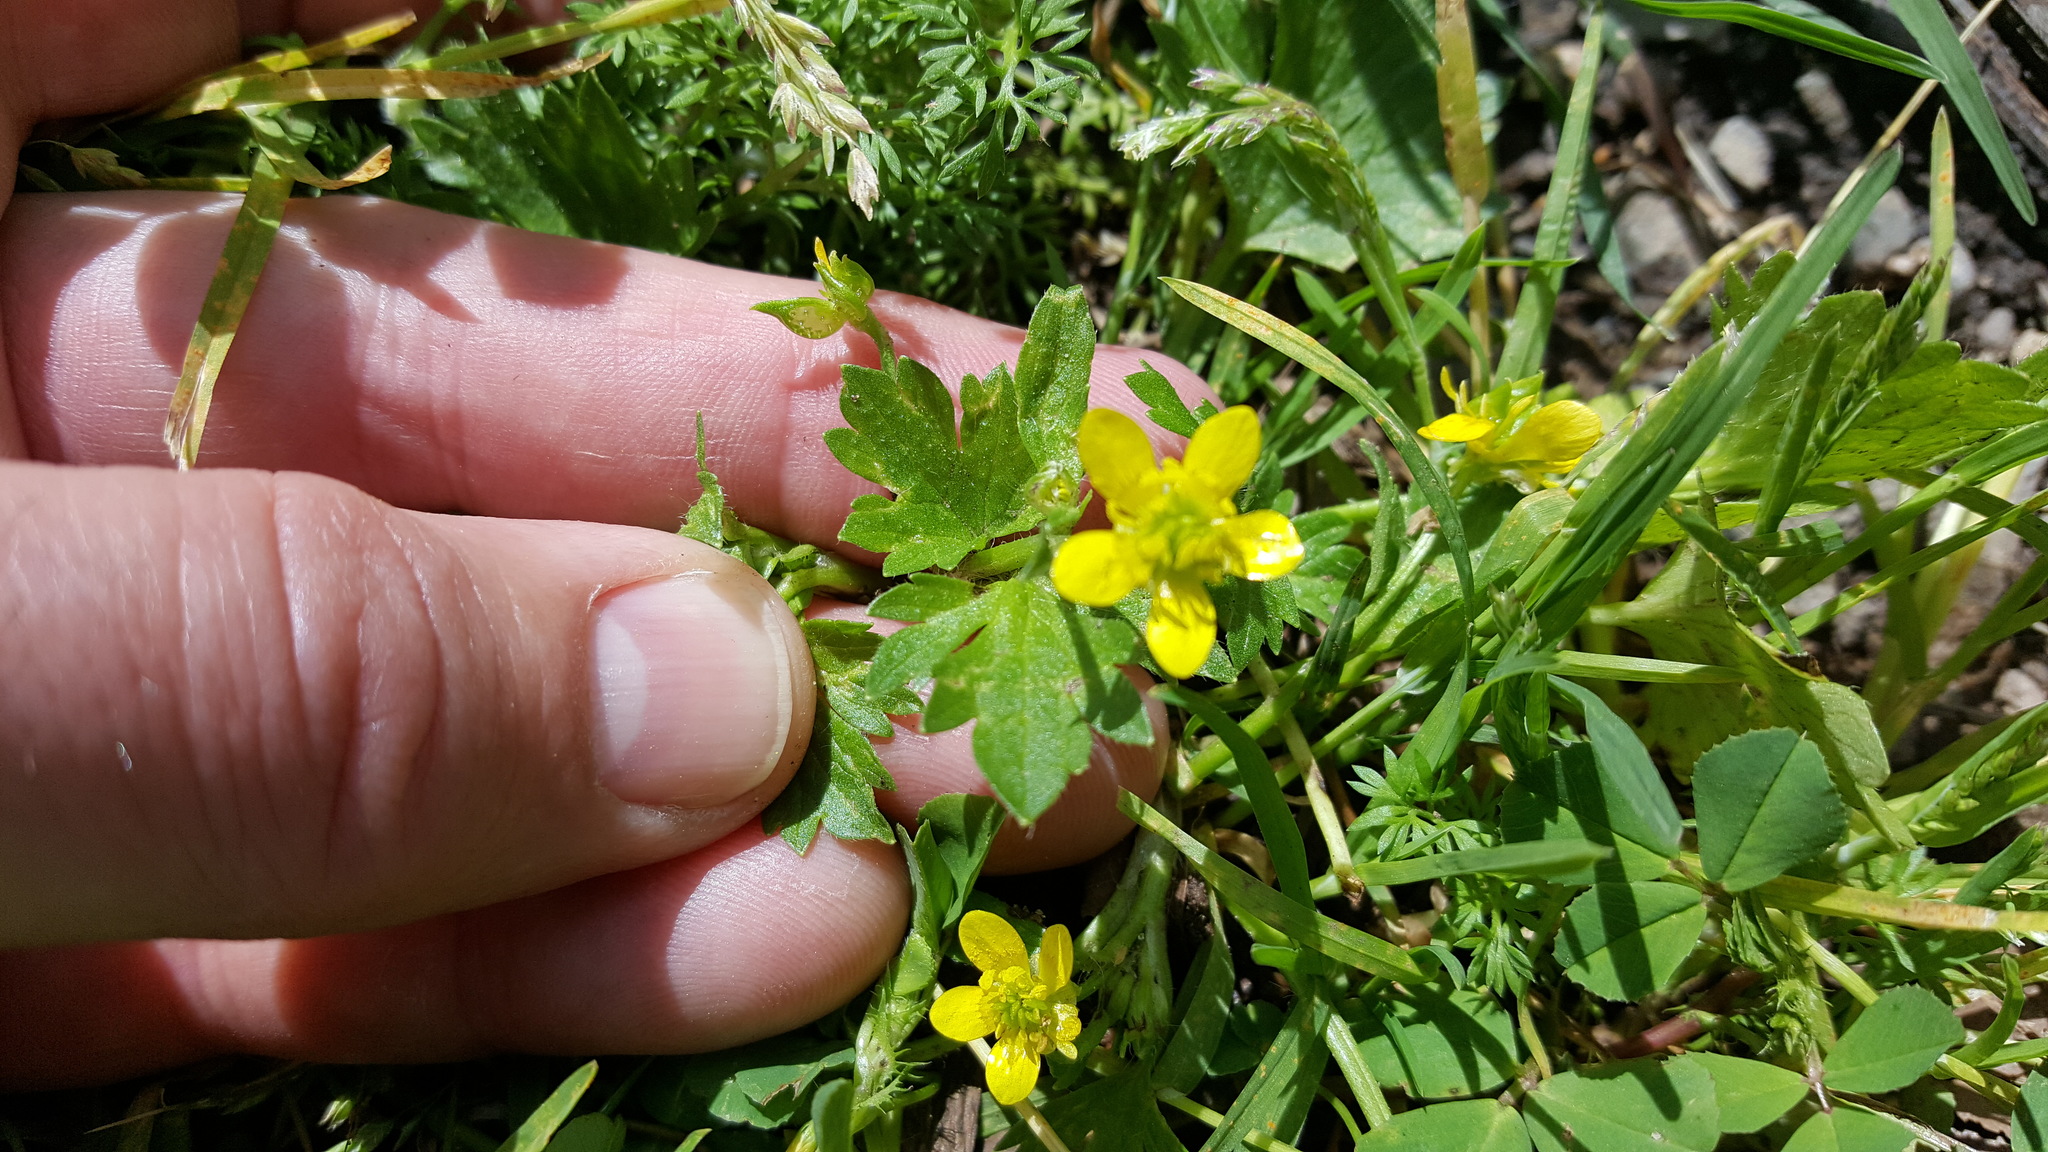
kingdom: Plantae
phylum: Tracheophyta
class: Magnoliopsida
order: Ranunculales
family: Ranunculaceae
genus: Ranunculus
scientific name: Ranunculus muricatus
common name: Rough-fruited buttercup
